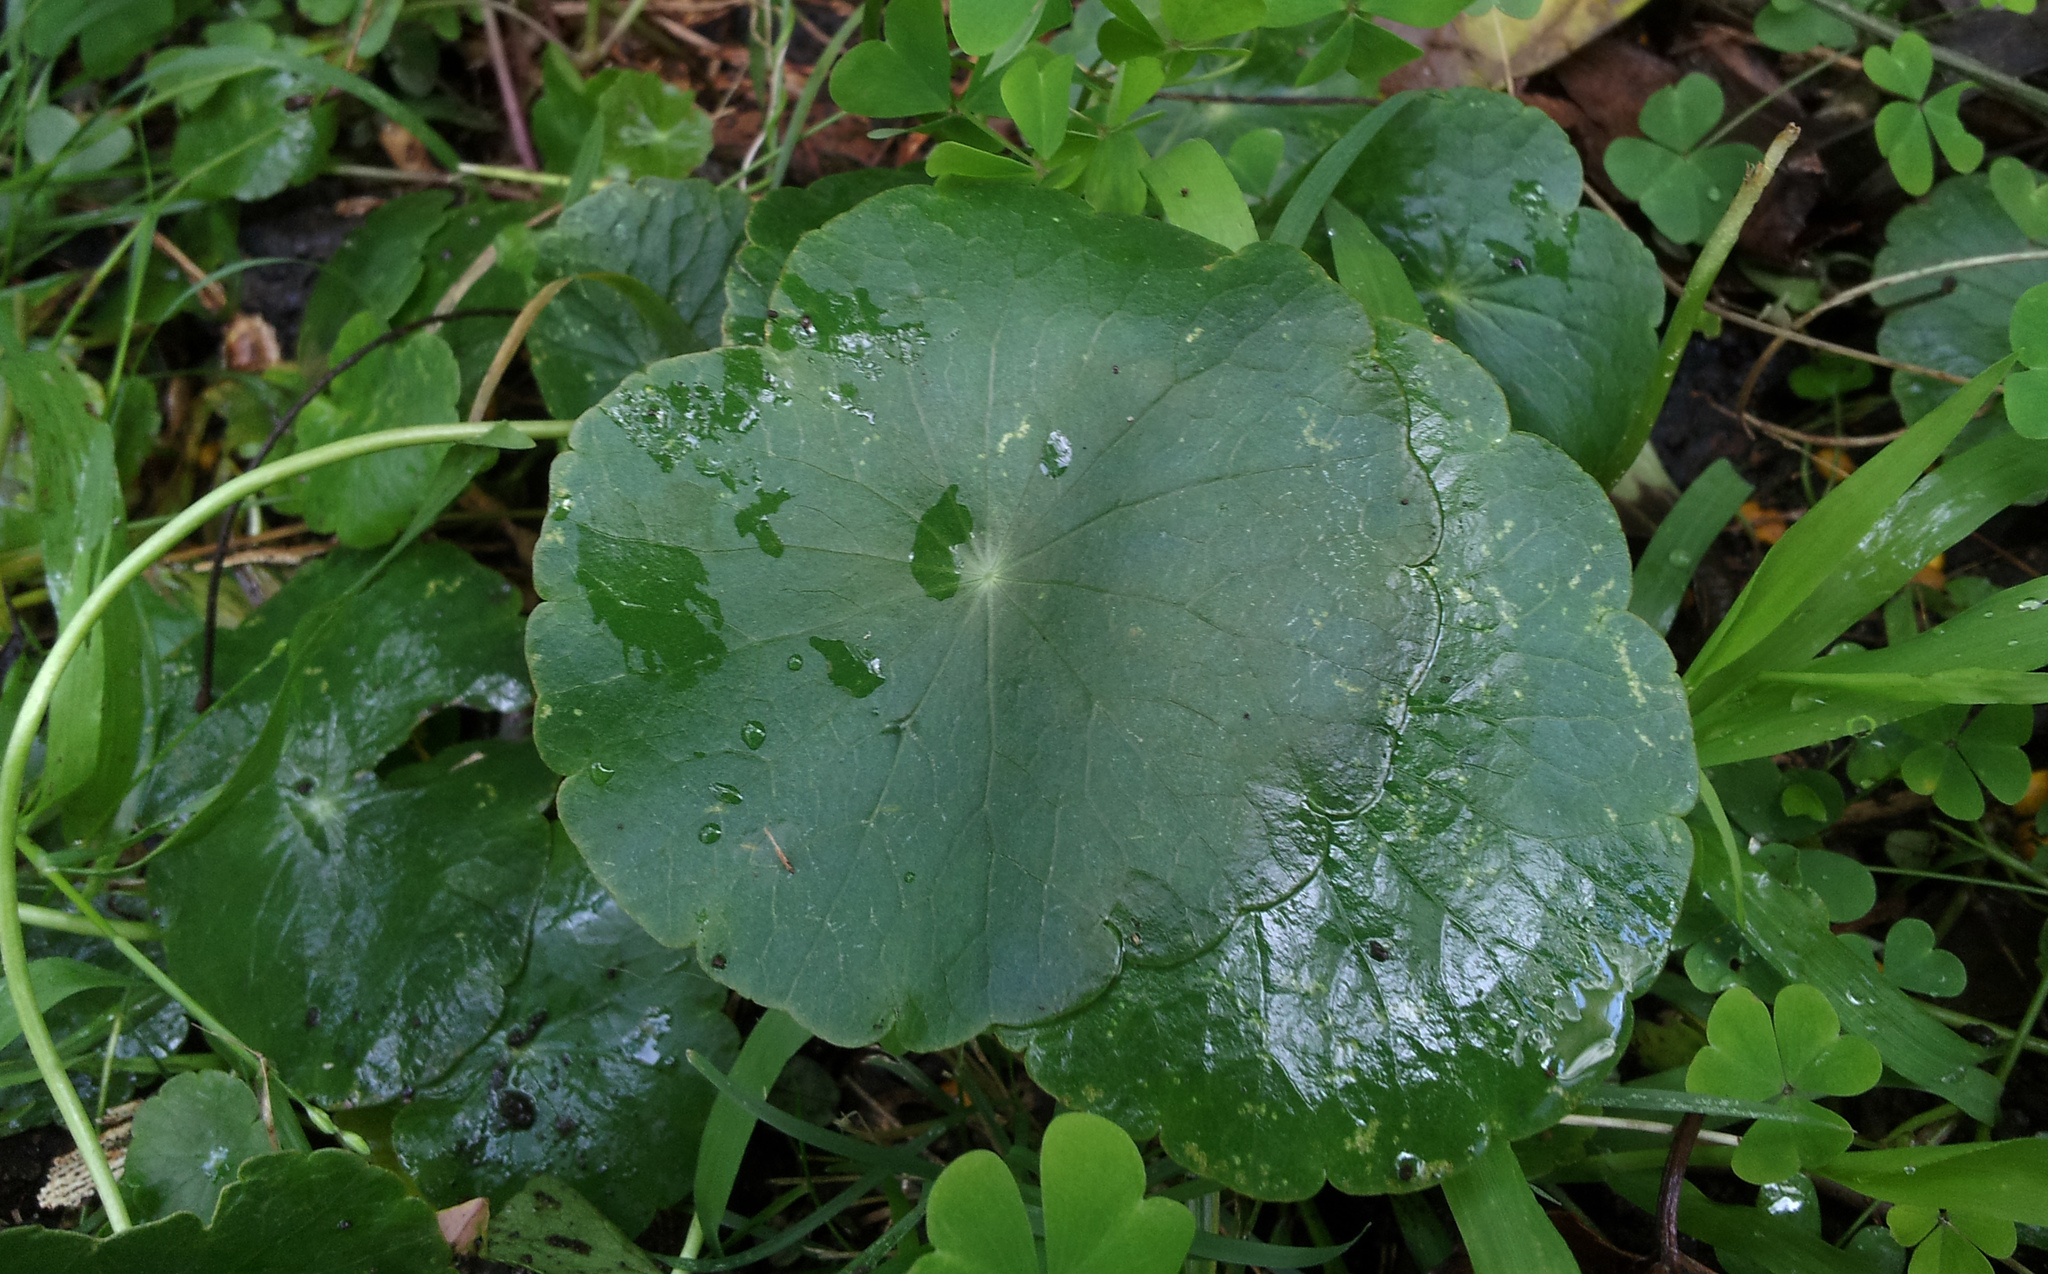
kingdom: Plantae
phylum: Tracheophyta
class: Magnoliopsida
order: Apiales
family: Araliaceae
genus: Hydrocotyle
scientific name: Hydrocotyle umbellata
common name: Water pennywort
